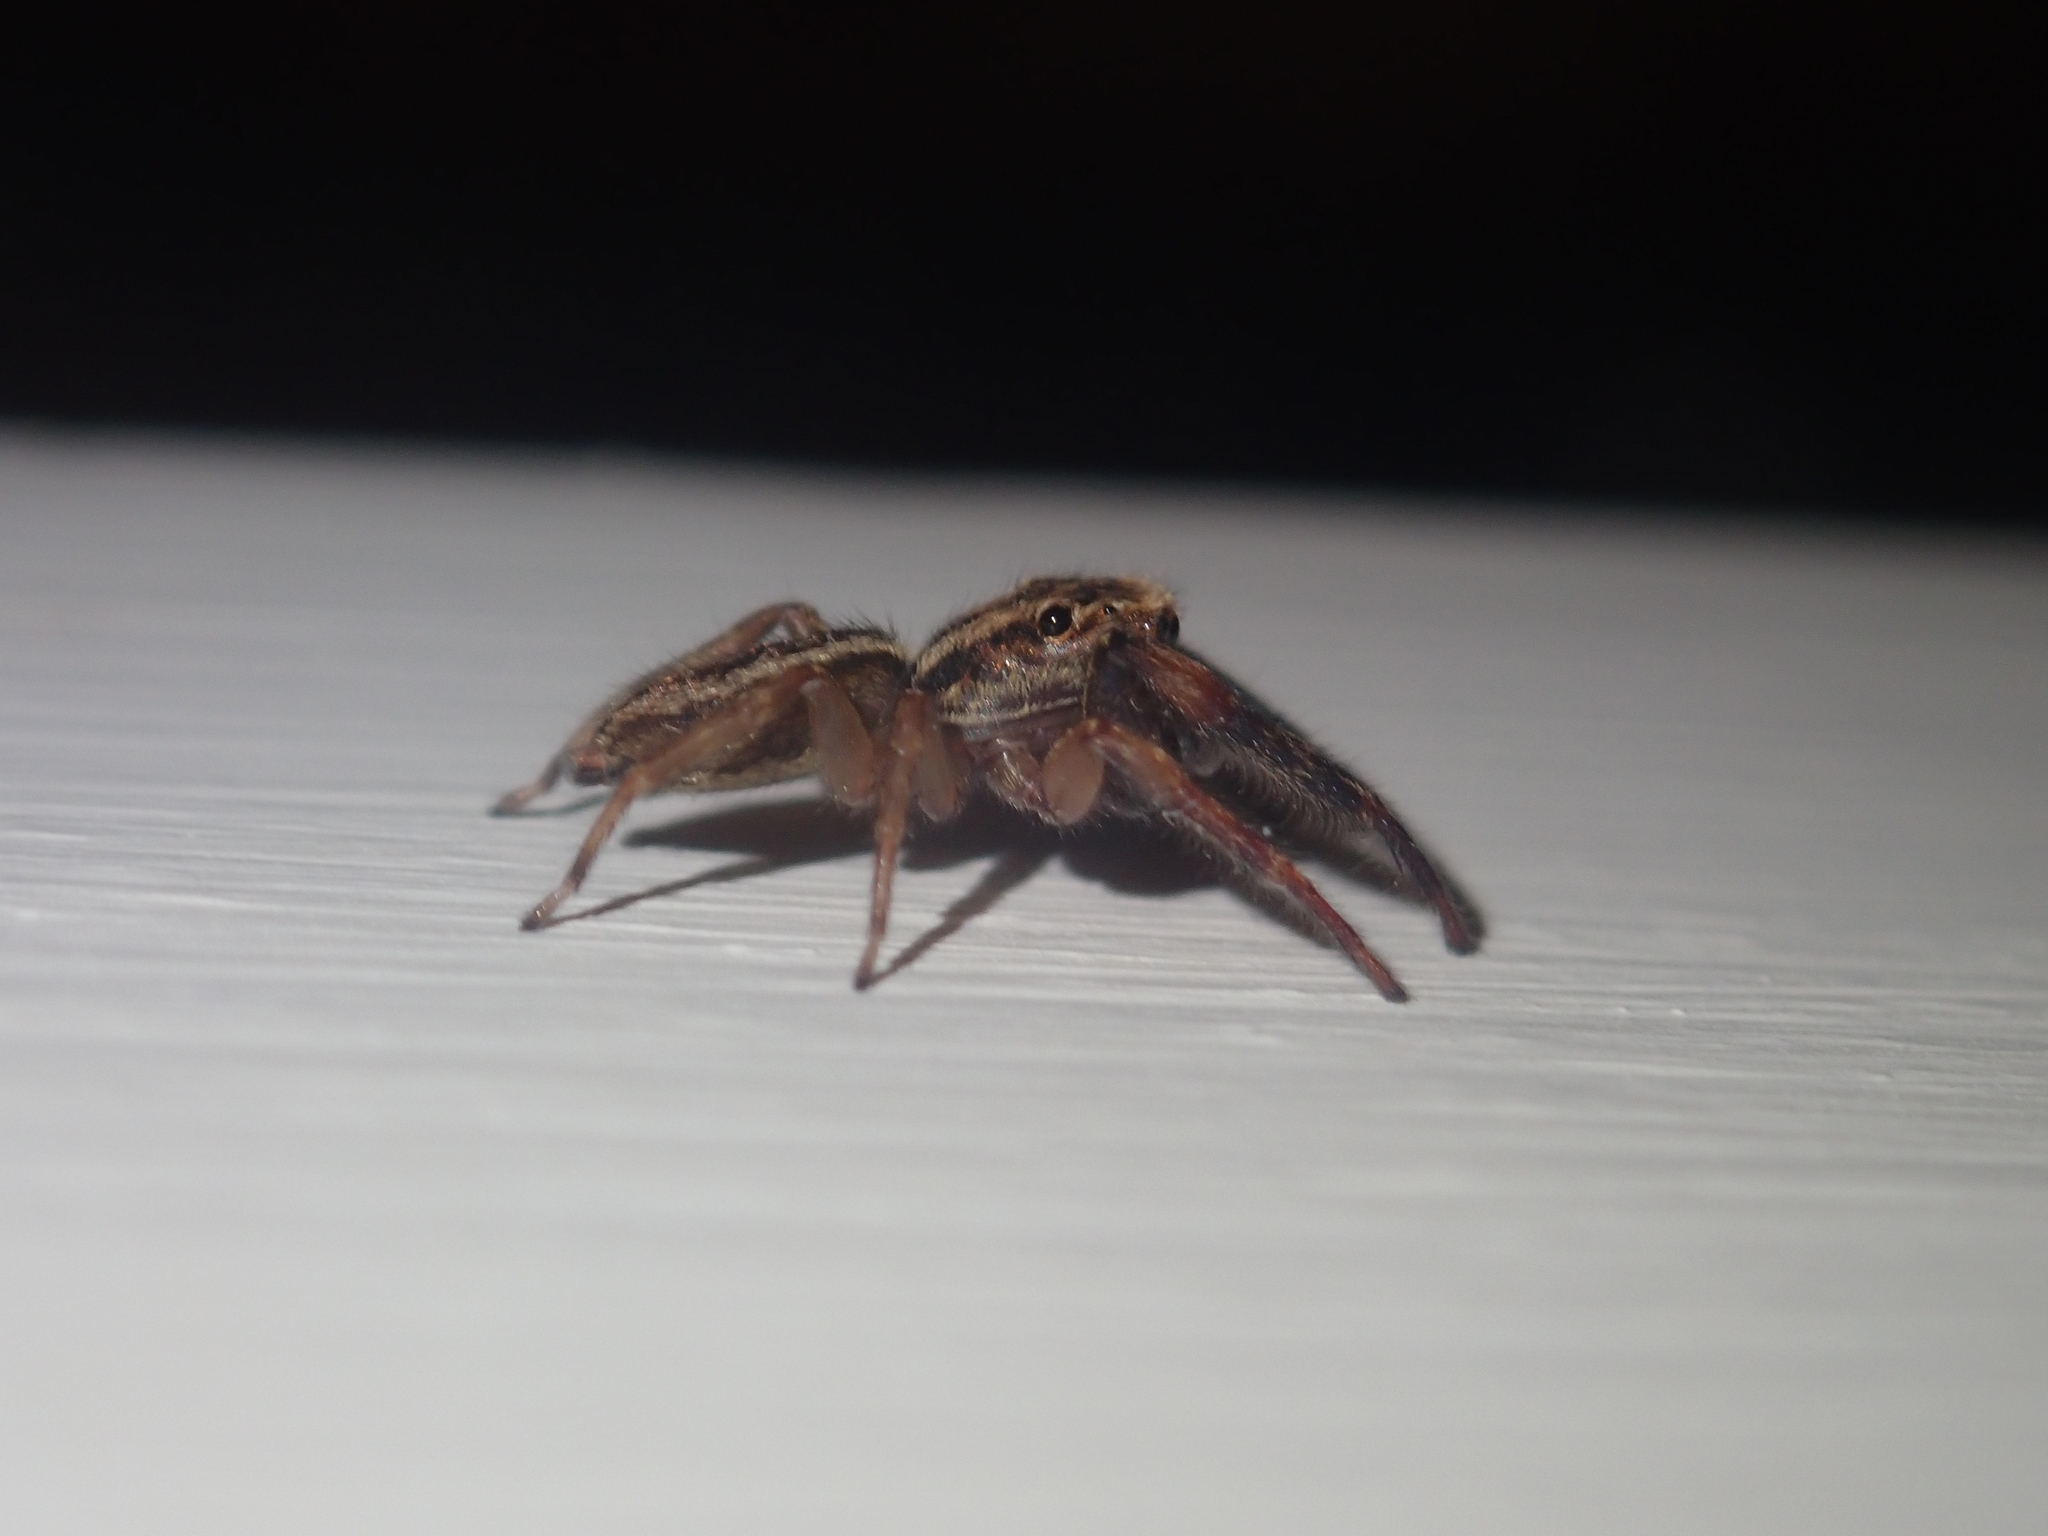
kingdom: Animalia
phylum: Arthropoda
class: Arachnida
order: Araneae
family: Salticidae
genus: Trite
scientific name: Trite auricoma
